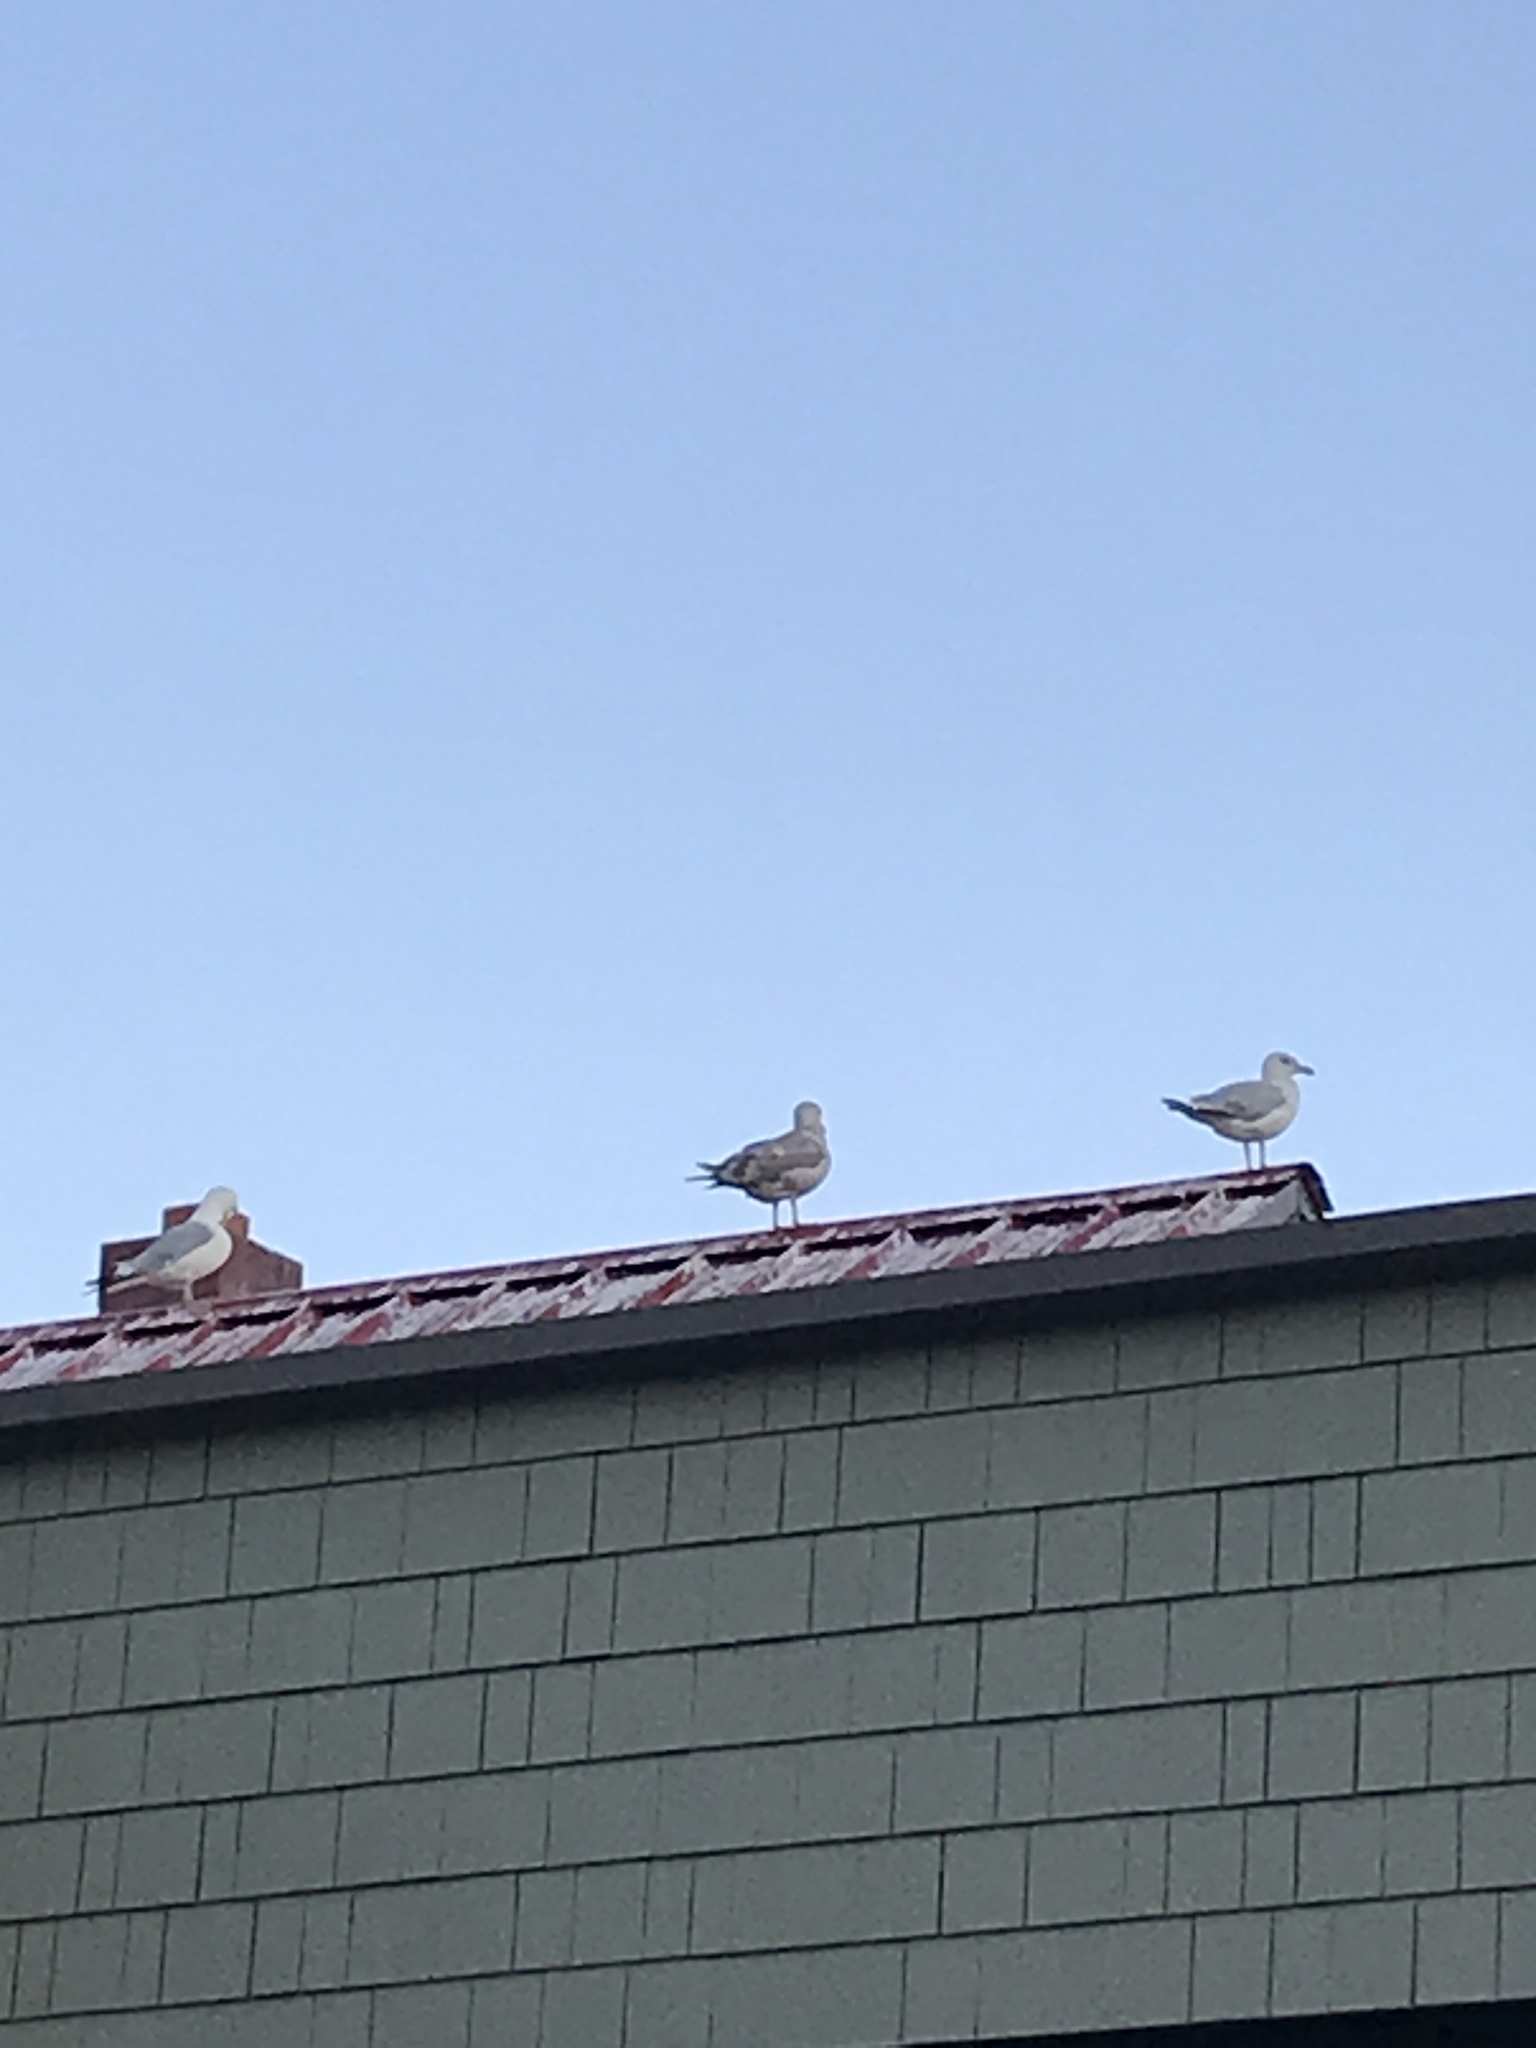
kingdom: Animalia
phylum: Chordata
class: Aves
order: Charadriiformes
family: Laridae
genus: Larus
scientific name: Larus argentatus
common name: Herring gull
